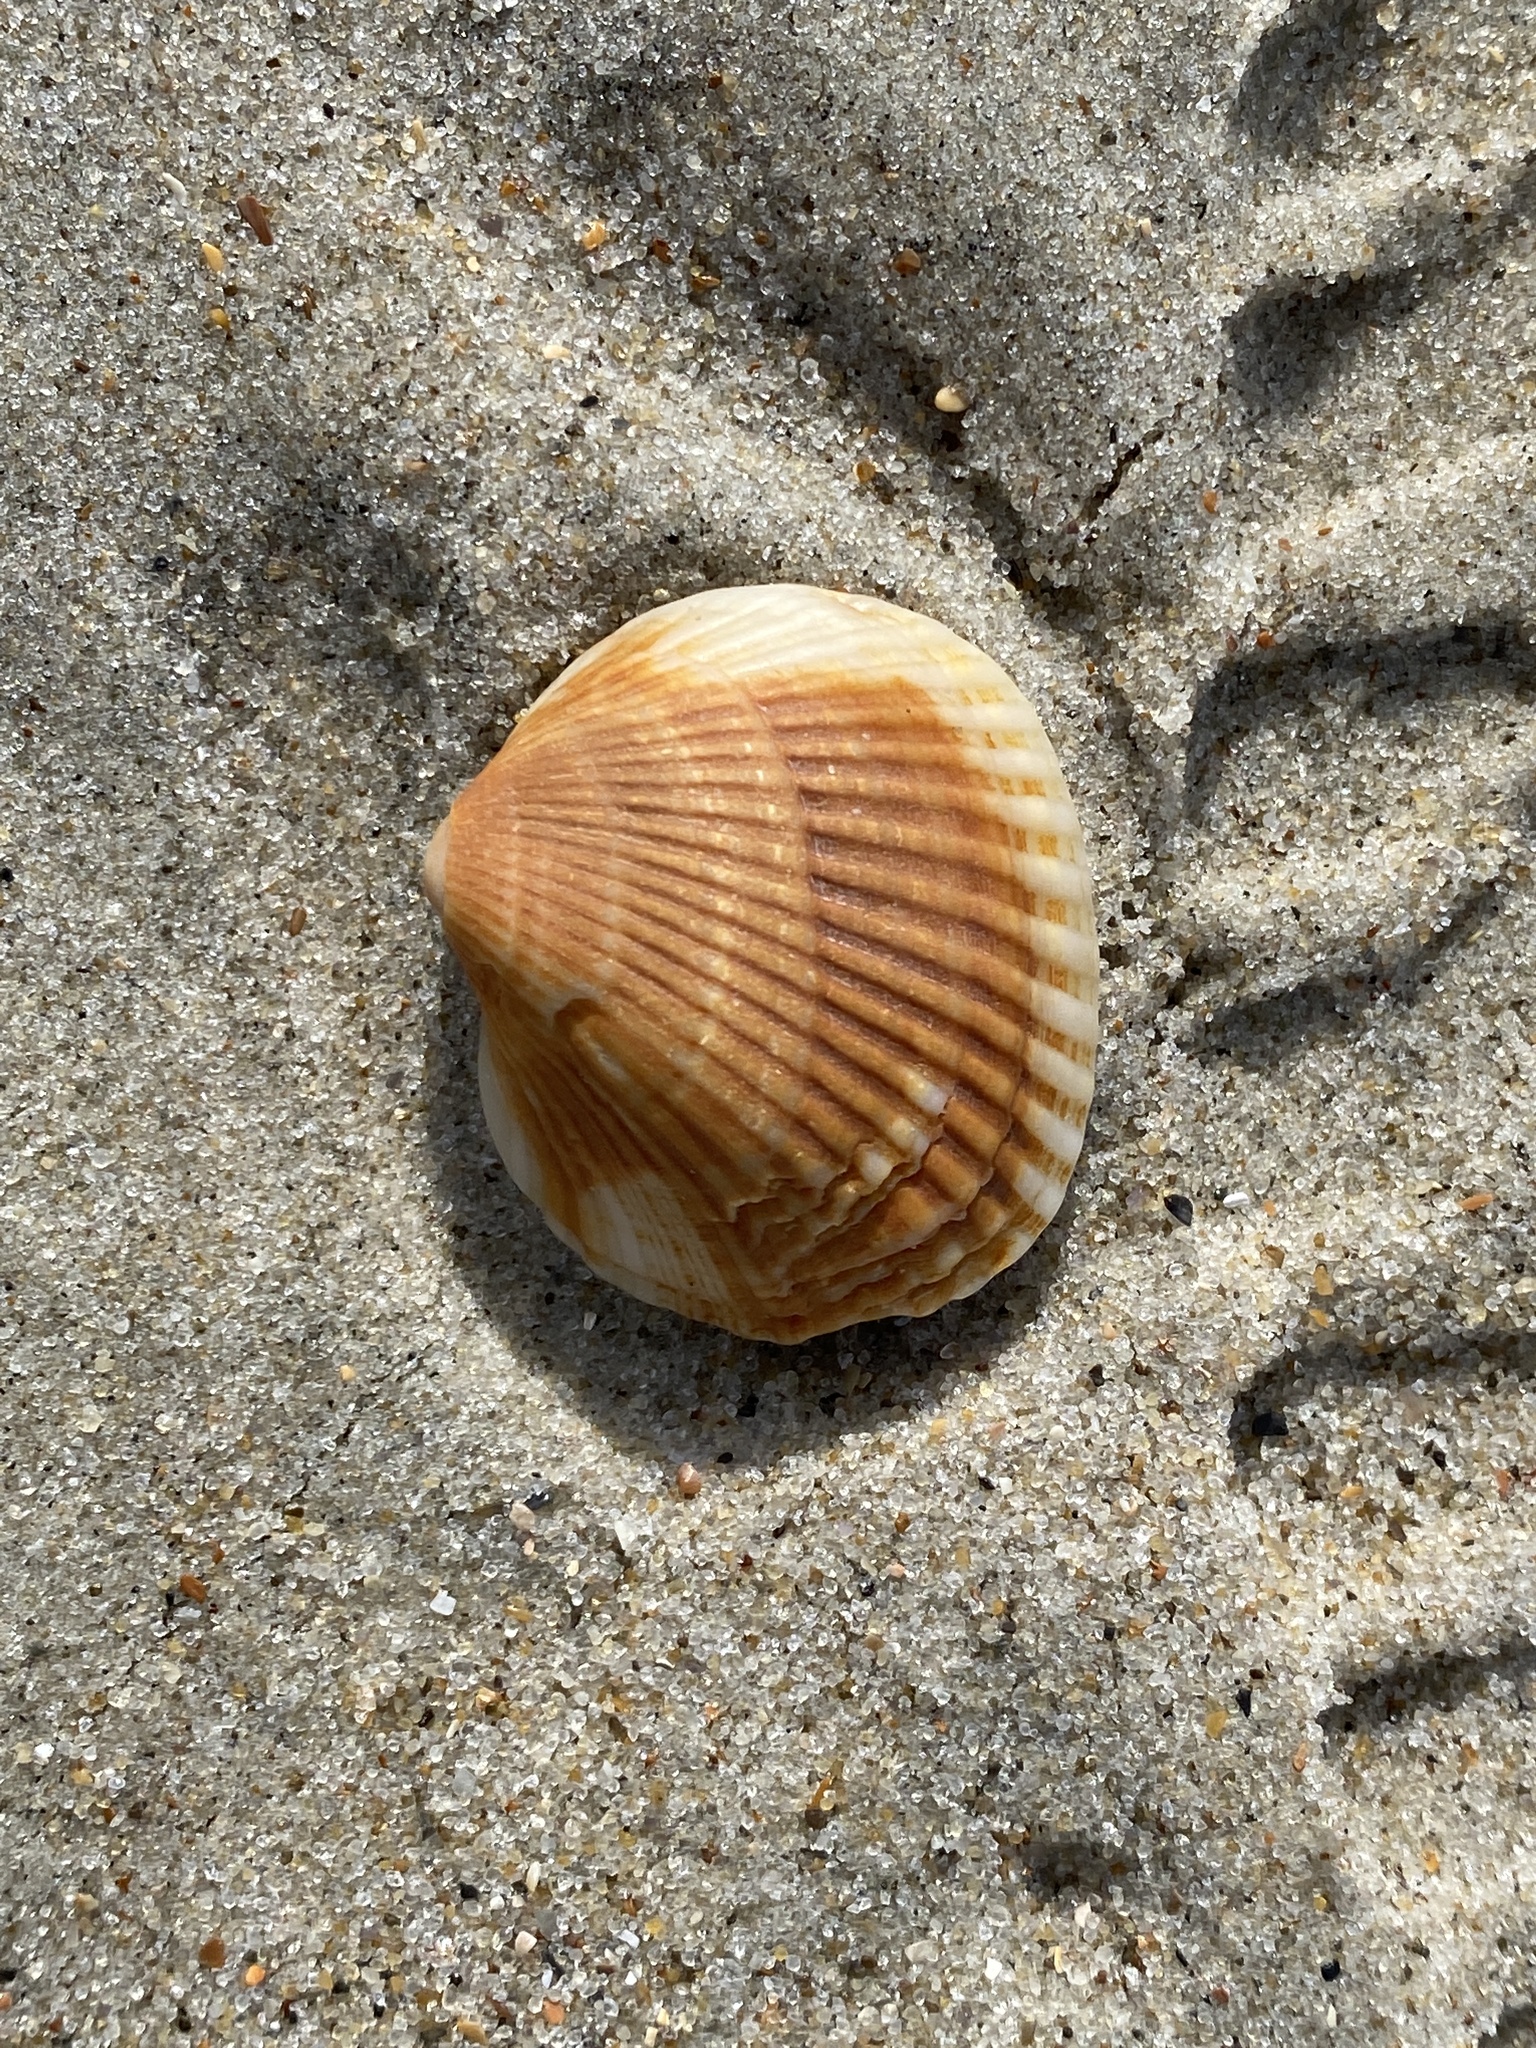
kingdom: Animalia
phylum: Mollusca
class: Bivalvia
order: Arcida
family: Arcidae
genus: Lunarca
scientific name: Lunarca ovalis
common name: Blood ark
